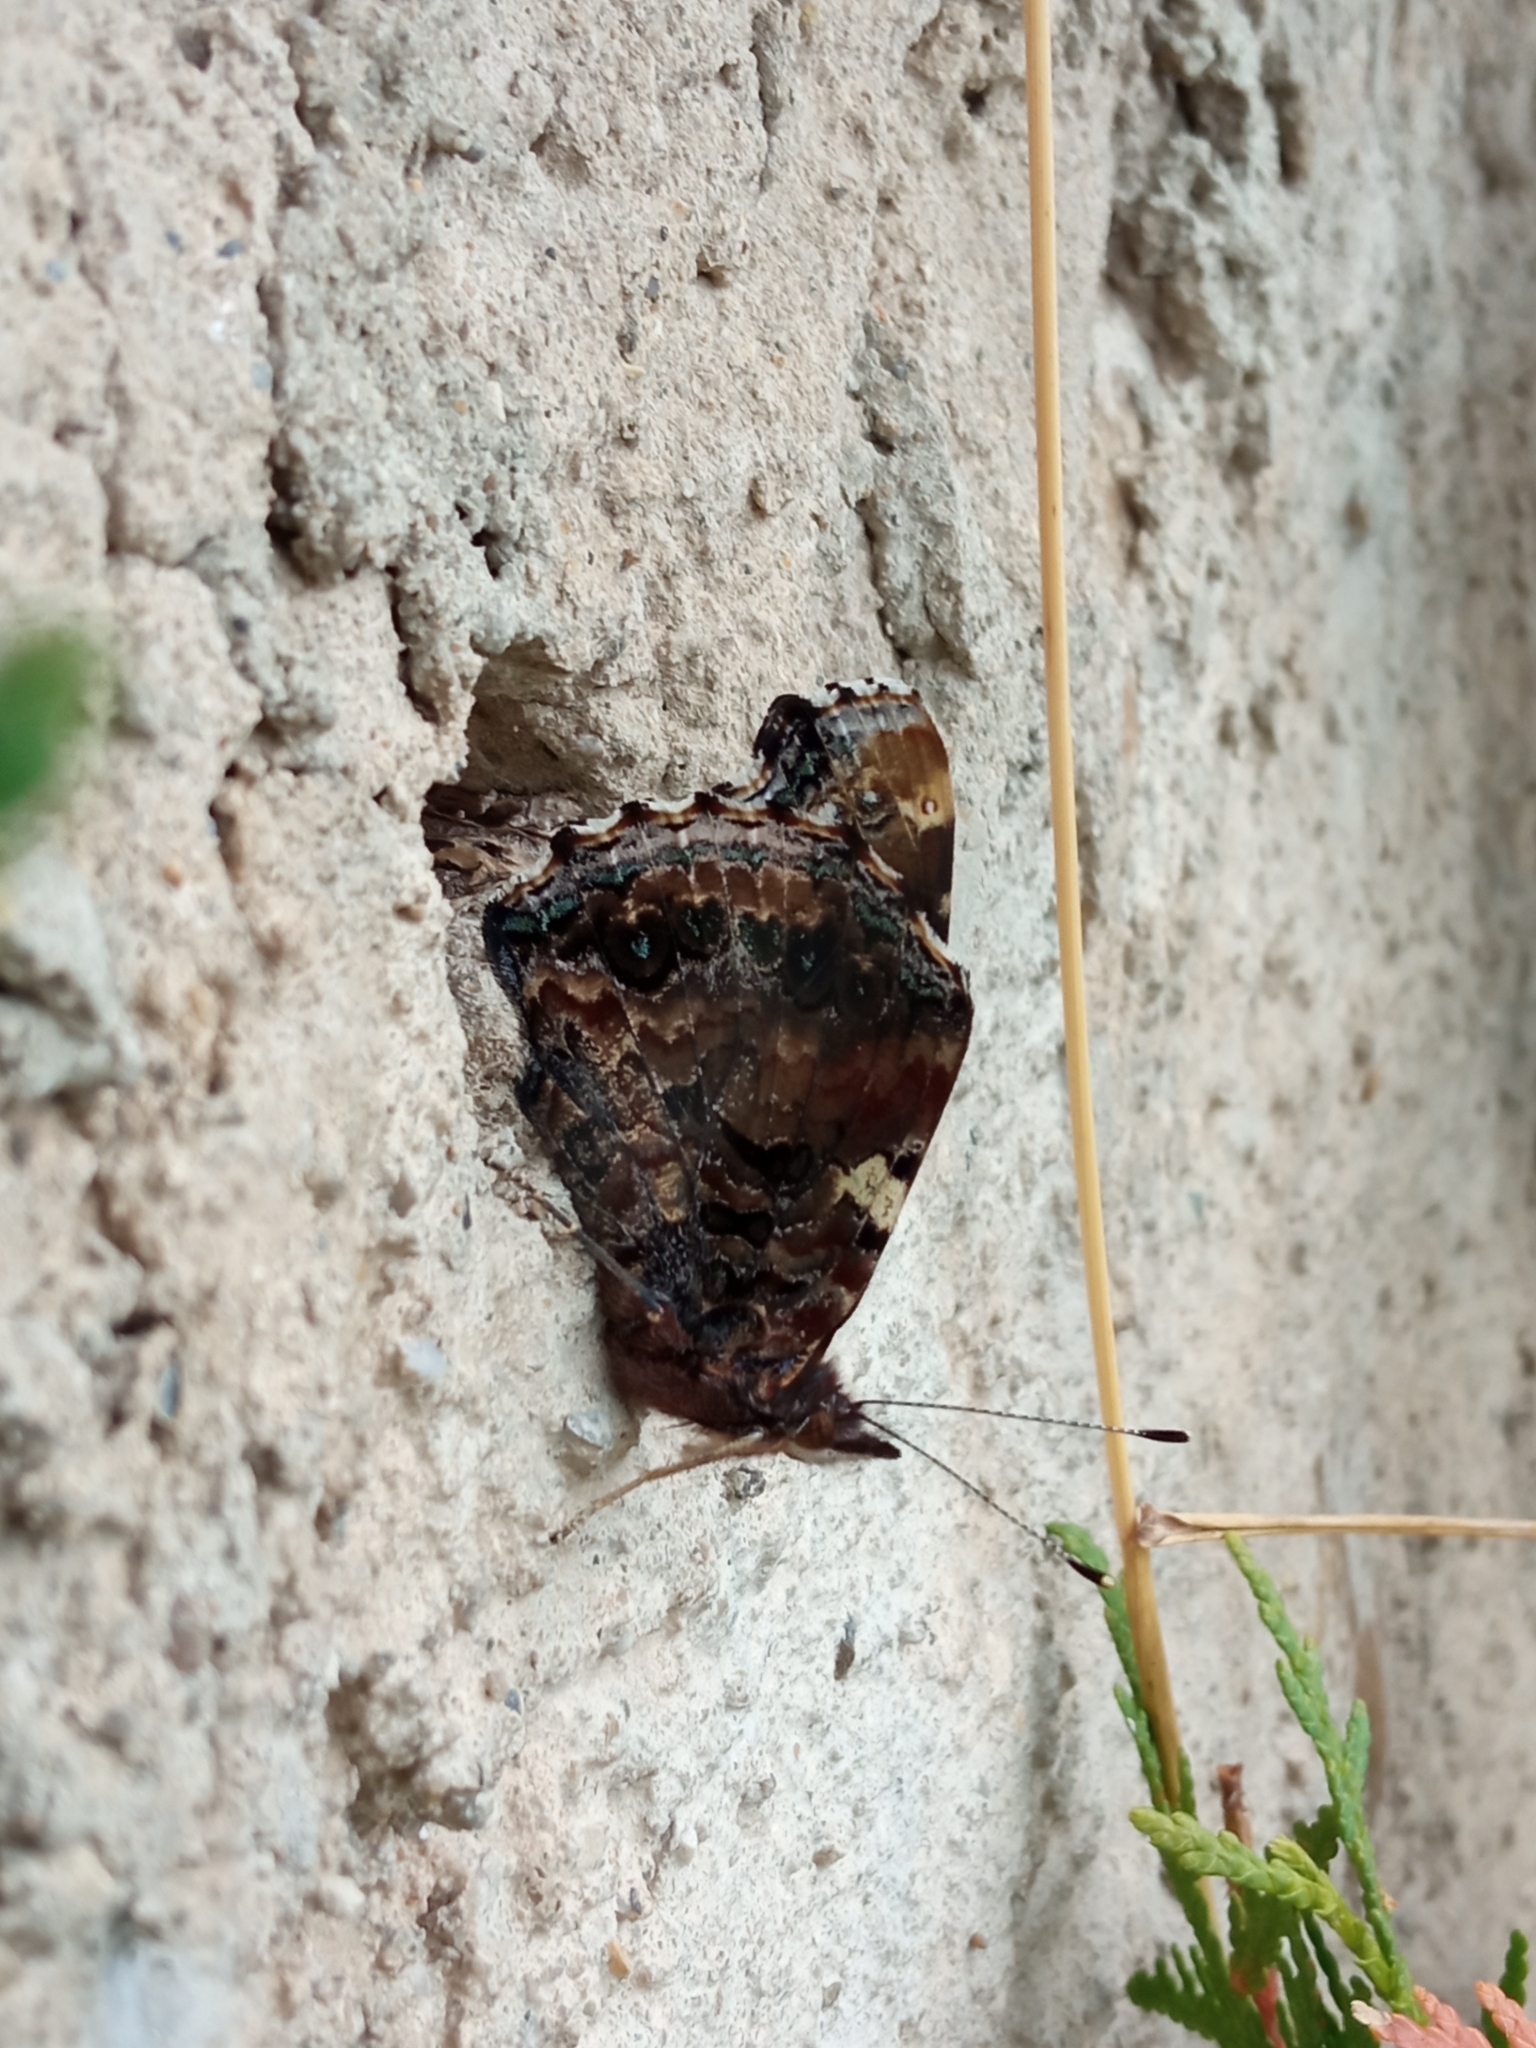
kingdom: Animalia
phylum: Arthropoda
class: Insecta
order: Lepidoptera
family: Nymphalidae
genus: Vanessa
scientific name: Vanessa atalanta
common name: Red admiral
